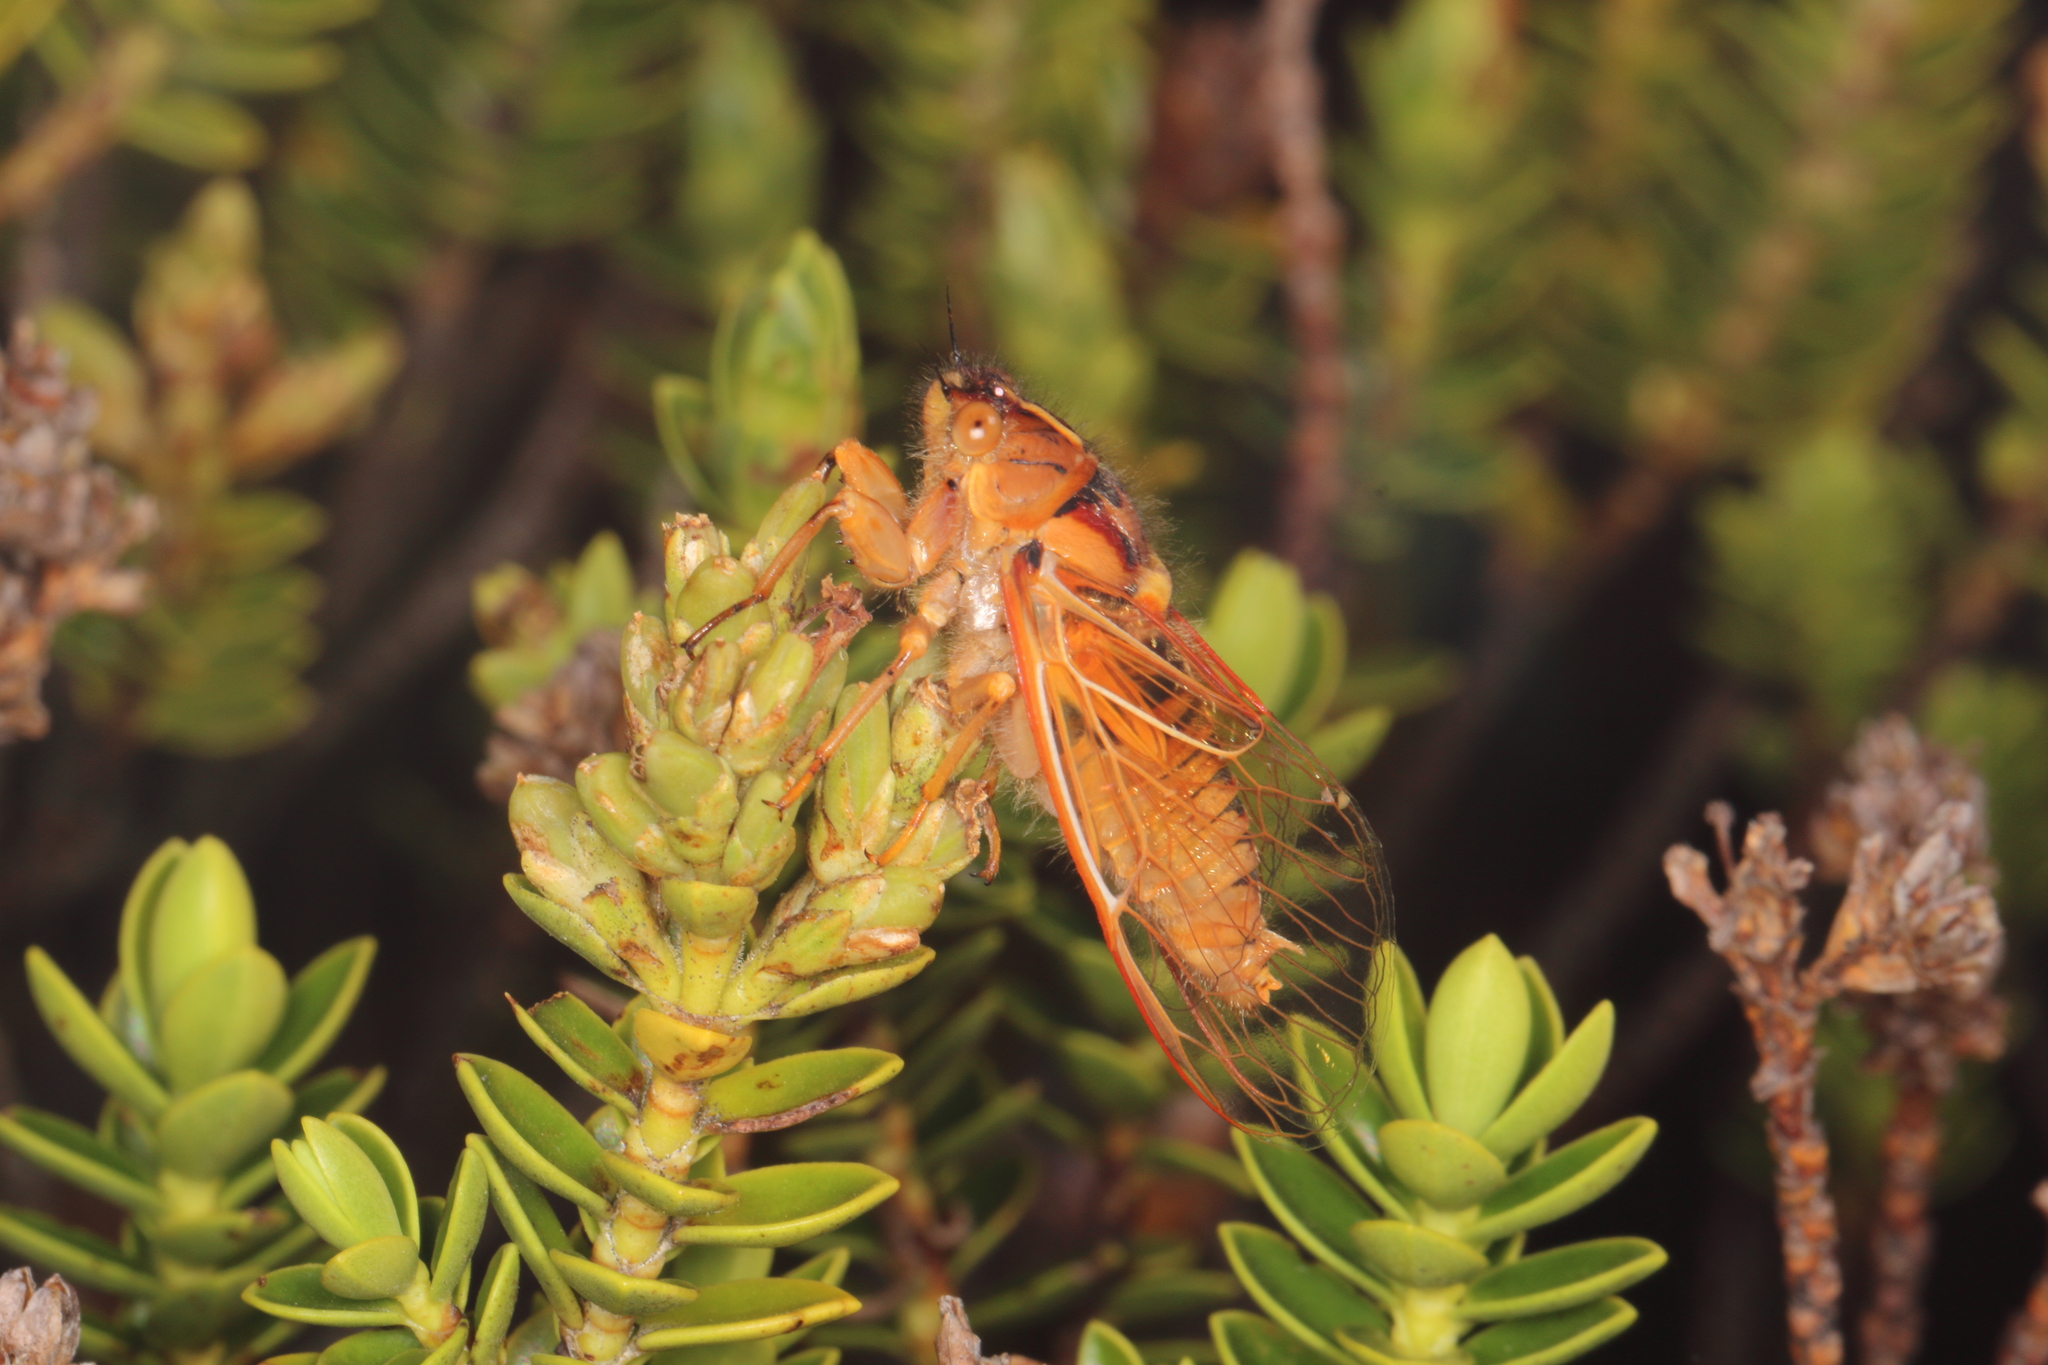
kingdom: Animalia
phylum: Arthropoda
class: Insecta
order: Hemiptera
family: Cicadidae
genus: Kikihia
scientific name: Kikihia subalpina
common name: Chathams cicada
